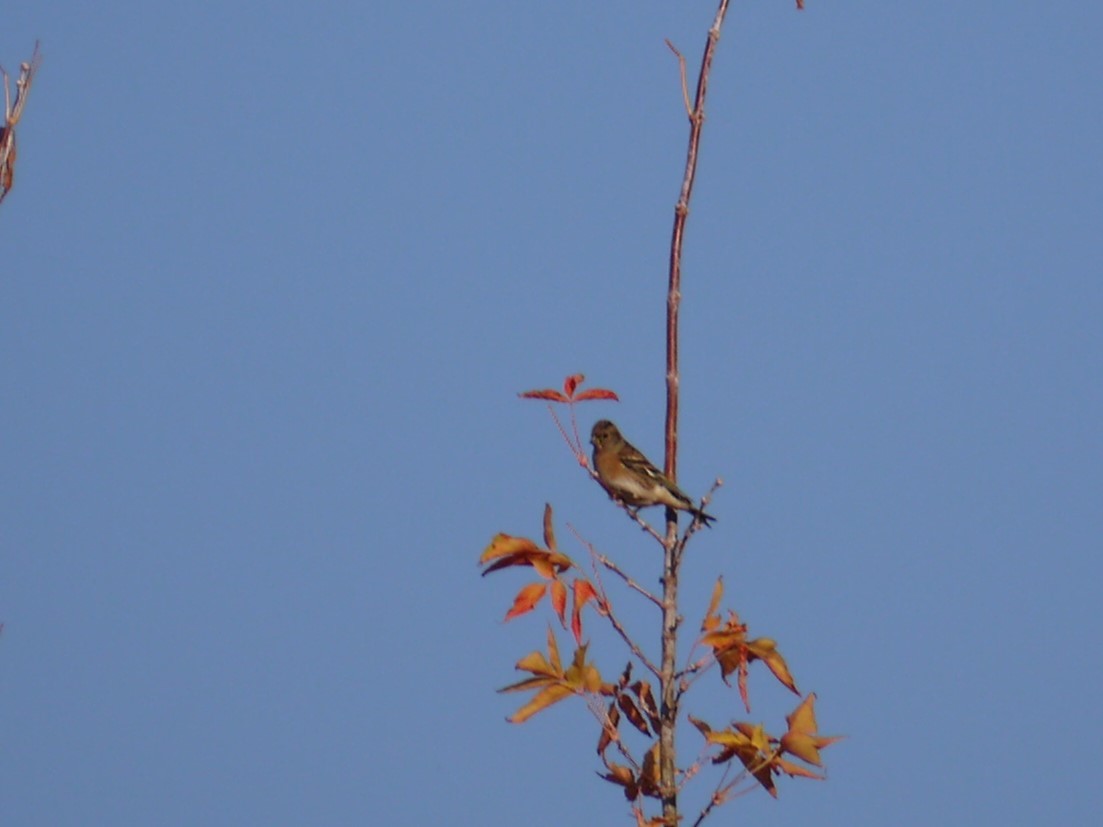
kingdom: Animalia
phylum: Chordata
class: Aves
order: Passeriformes
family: Fringillidae
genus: Fringilla
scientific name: Fringilla montifringilla
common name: Brambling
